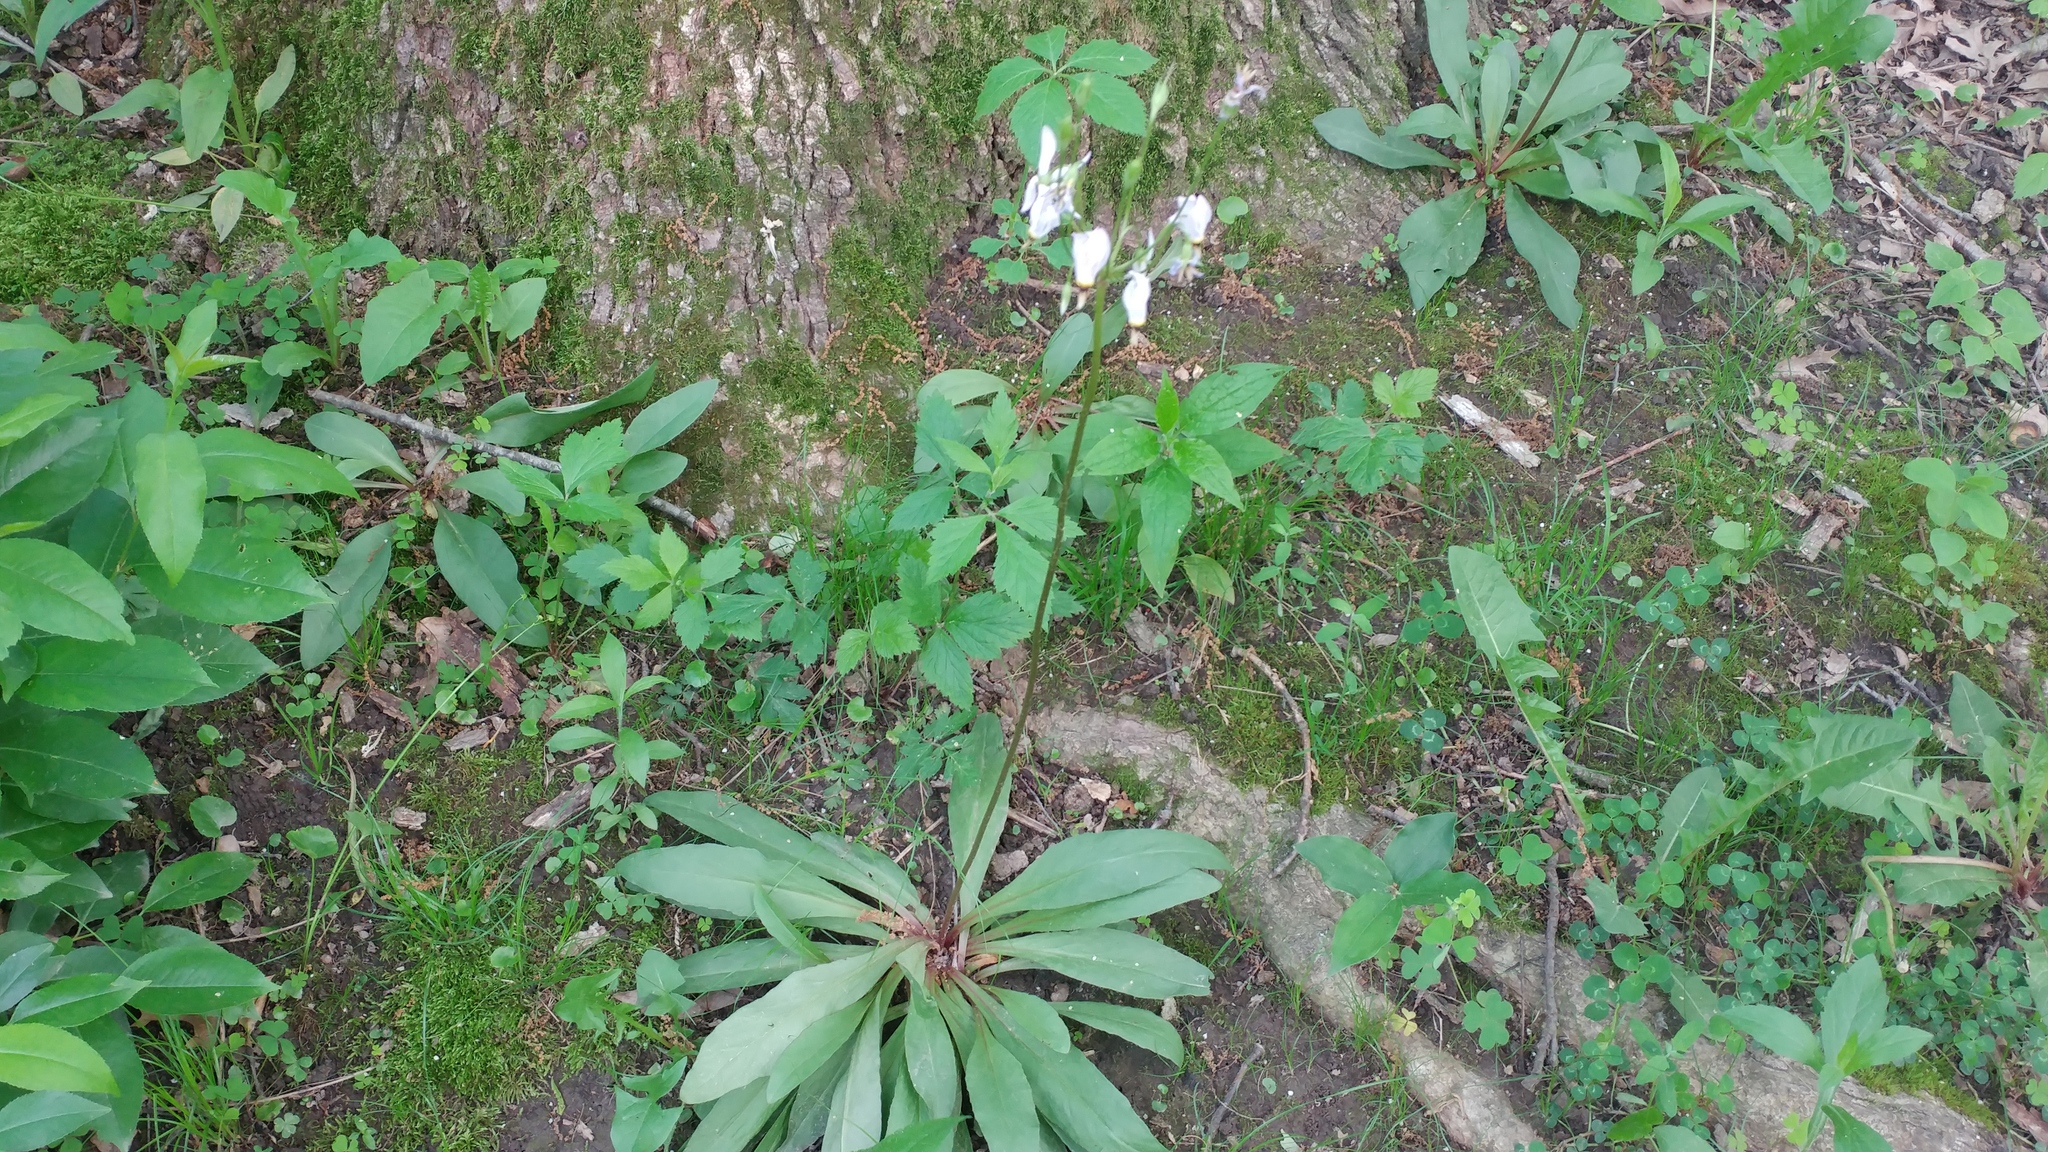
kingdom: Plantae
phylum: Tracheophyta
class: Magnoliopsida
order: Ericales
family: Primulaceae
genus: Dodecatheon
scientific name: Dodecatheon meadia
